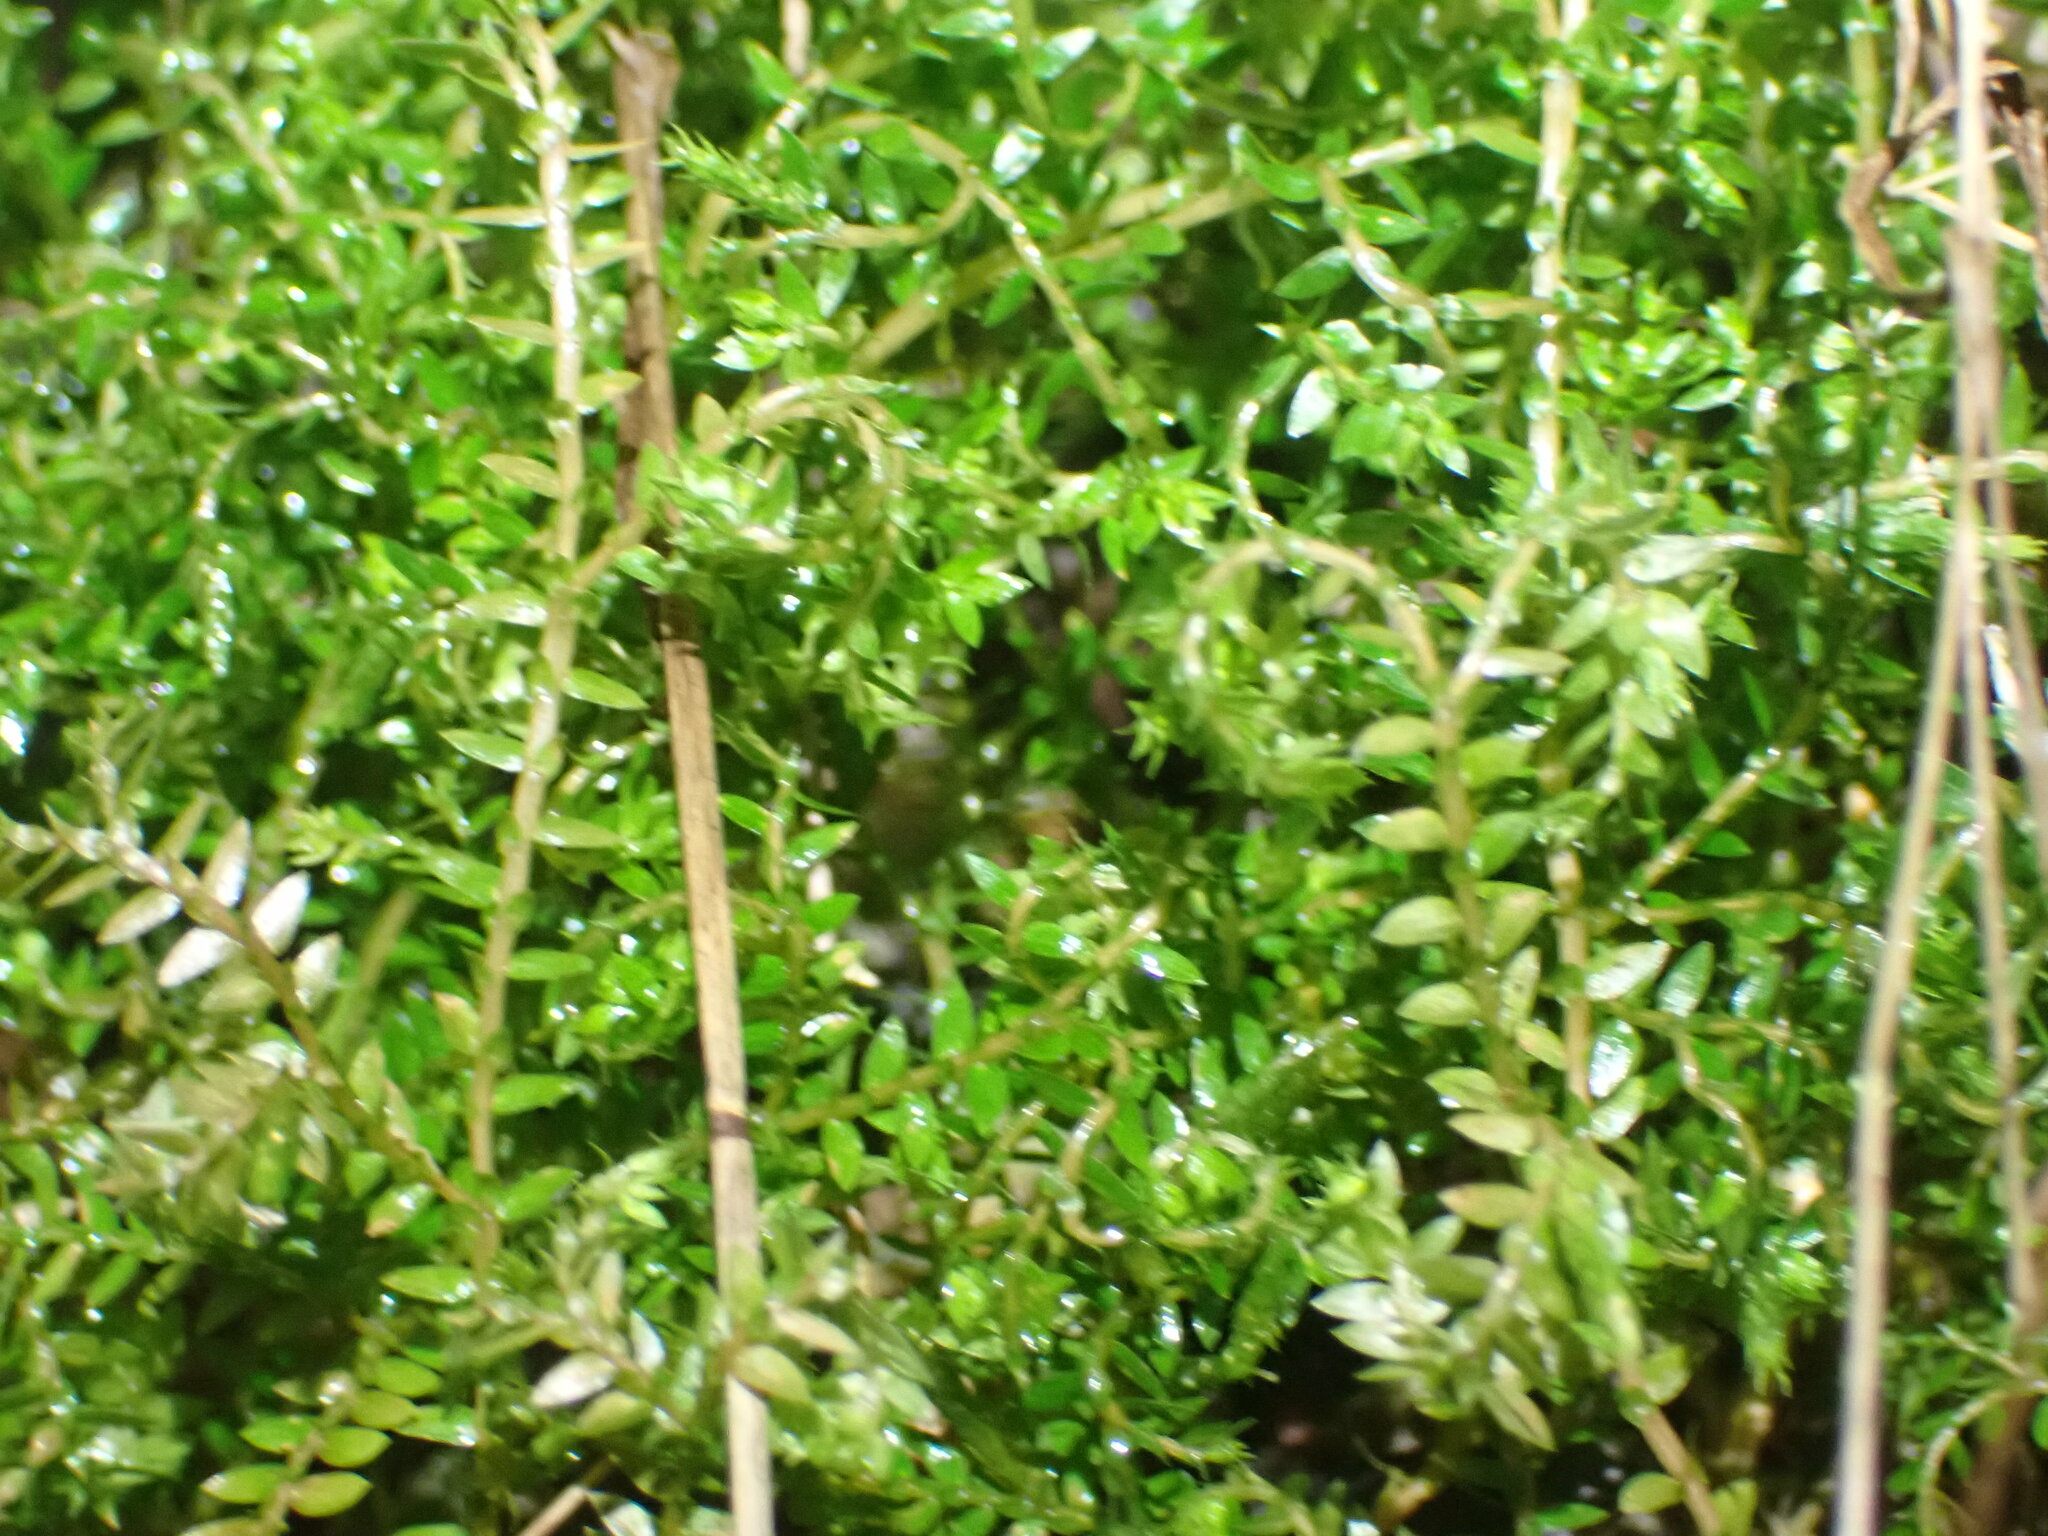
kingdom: Plantae
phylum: Tracheophyta
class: Lycopodiopsida
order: Selaginellales
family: Selaginellaceae
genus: Selaginella
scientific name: Selaginella kraussiana
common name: Krauss' spikemoss
